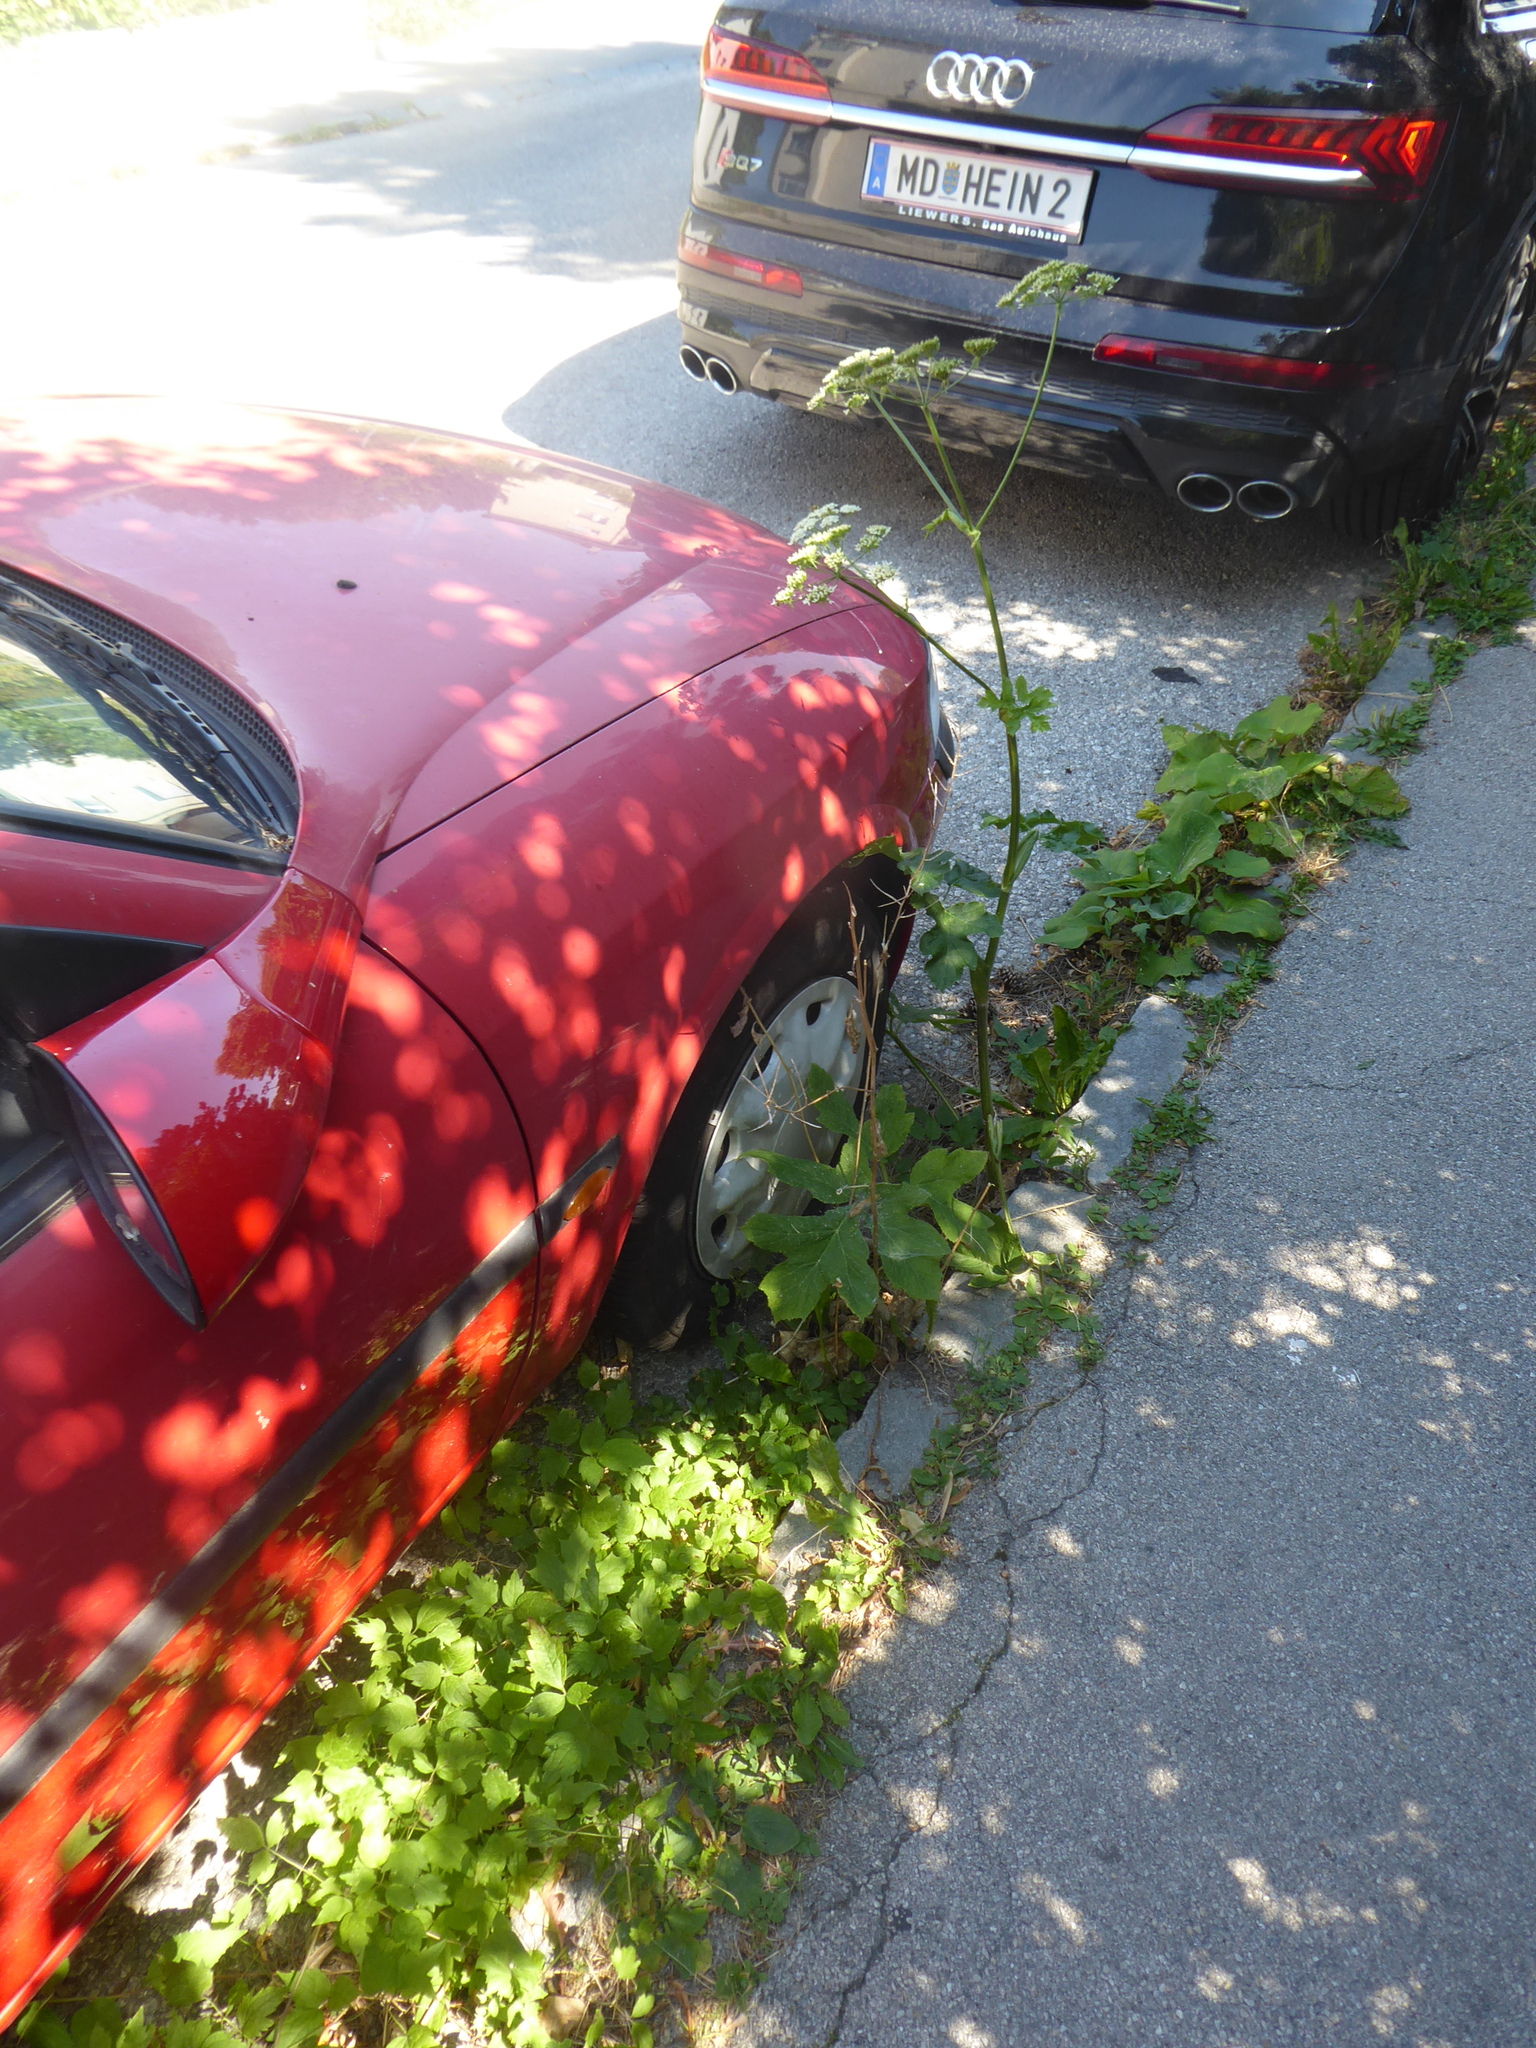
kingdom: Plantae
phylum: Tracheophyta
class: Magnoliopsida
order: Apiales
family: Apiaceae
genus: Heracleum
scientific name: Heracleum sphondylium
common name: Hogweed
